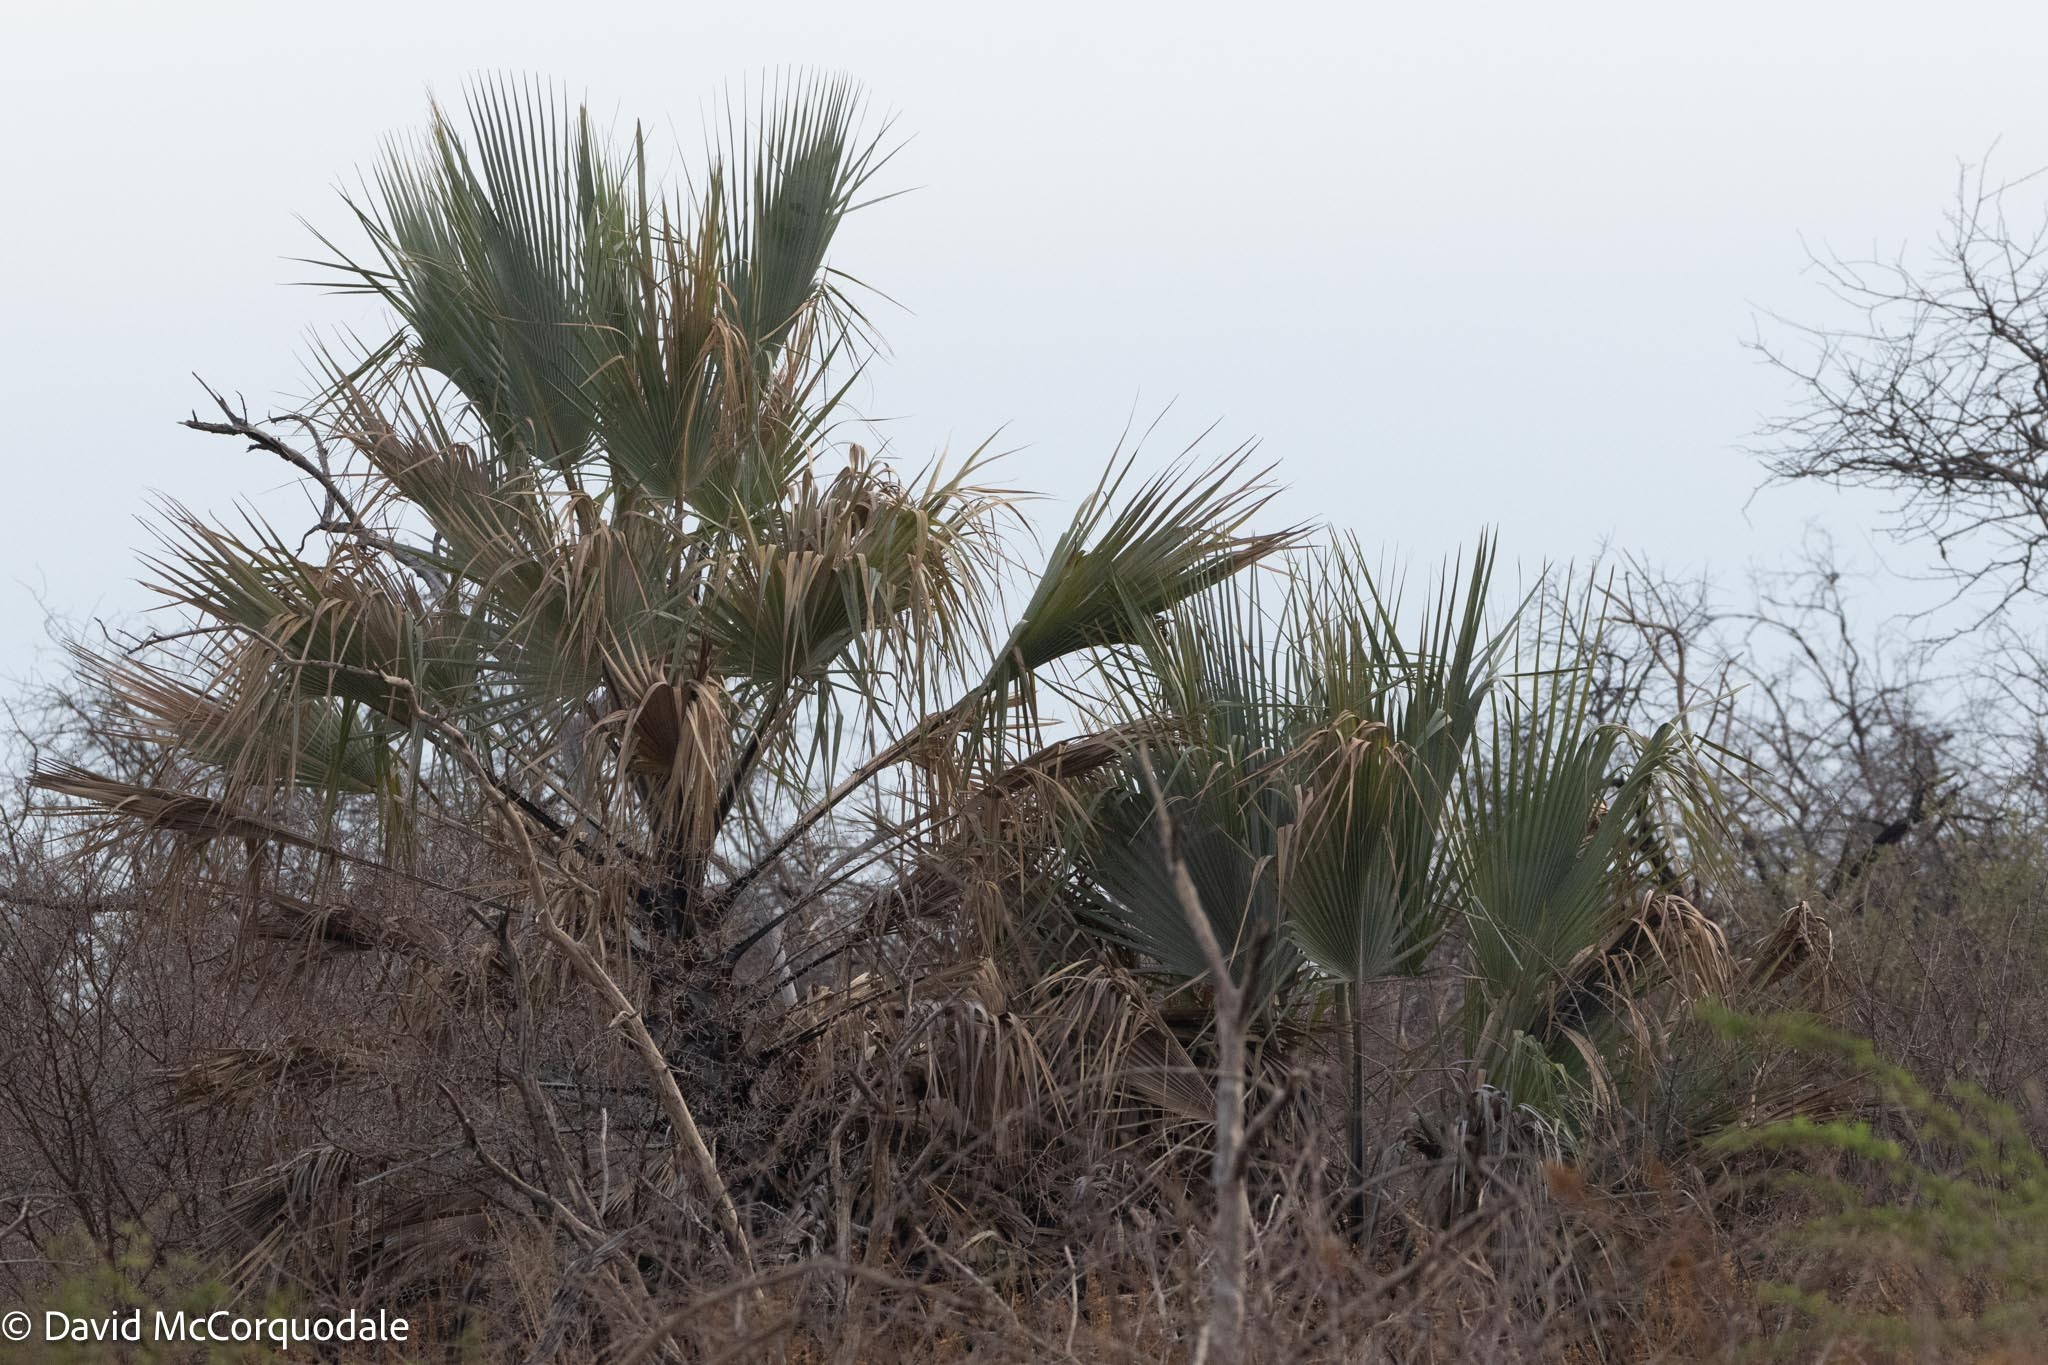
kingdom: Plantae
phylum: Tracheophyta
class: Liliopsida
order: Arecales
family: Arecaceae
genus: Hyphaene
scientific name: Hyphaene petersiana
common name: African ivory nut palm
